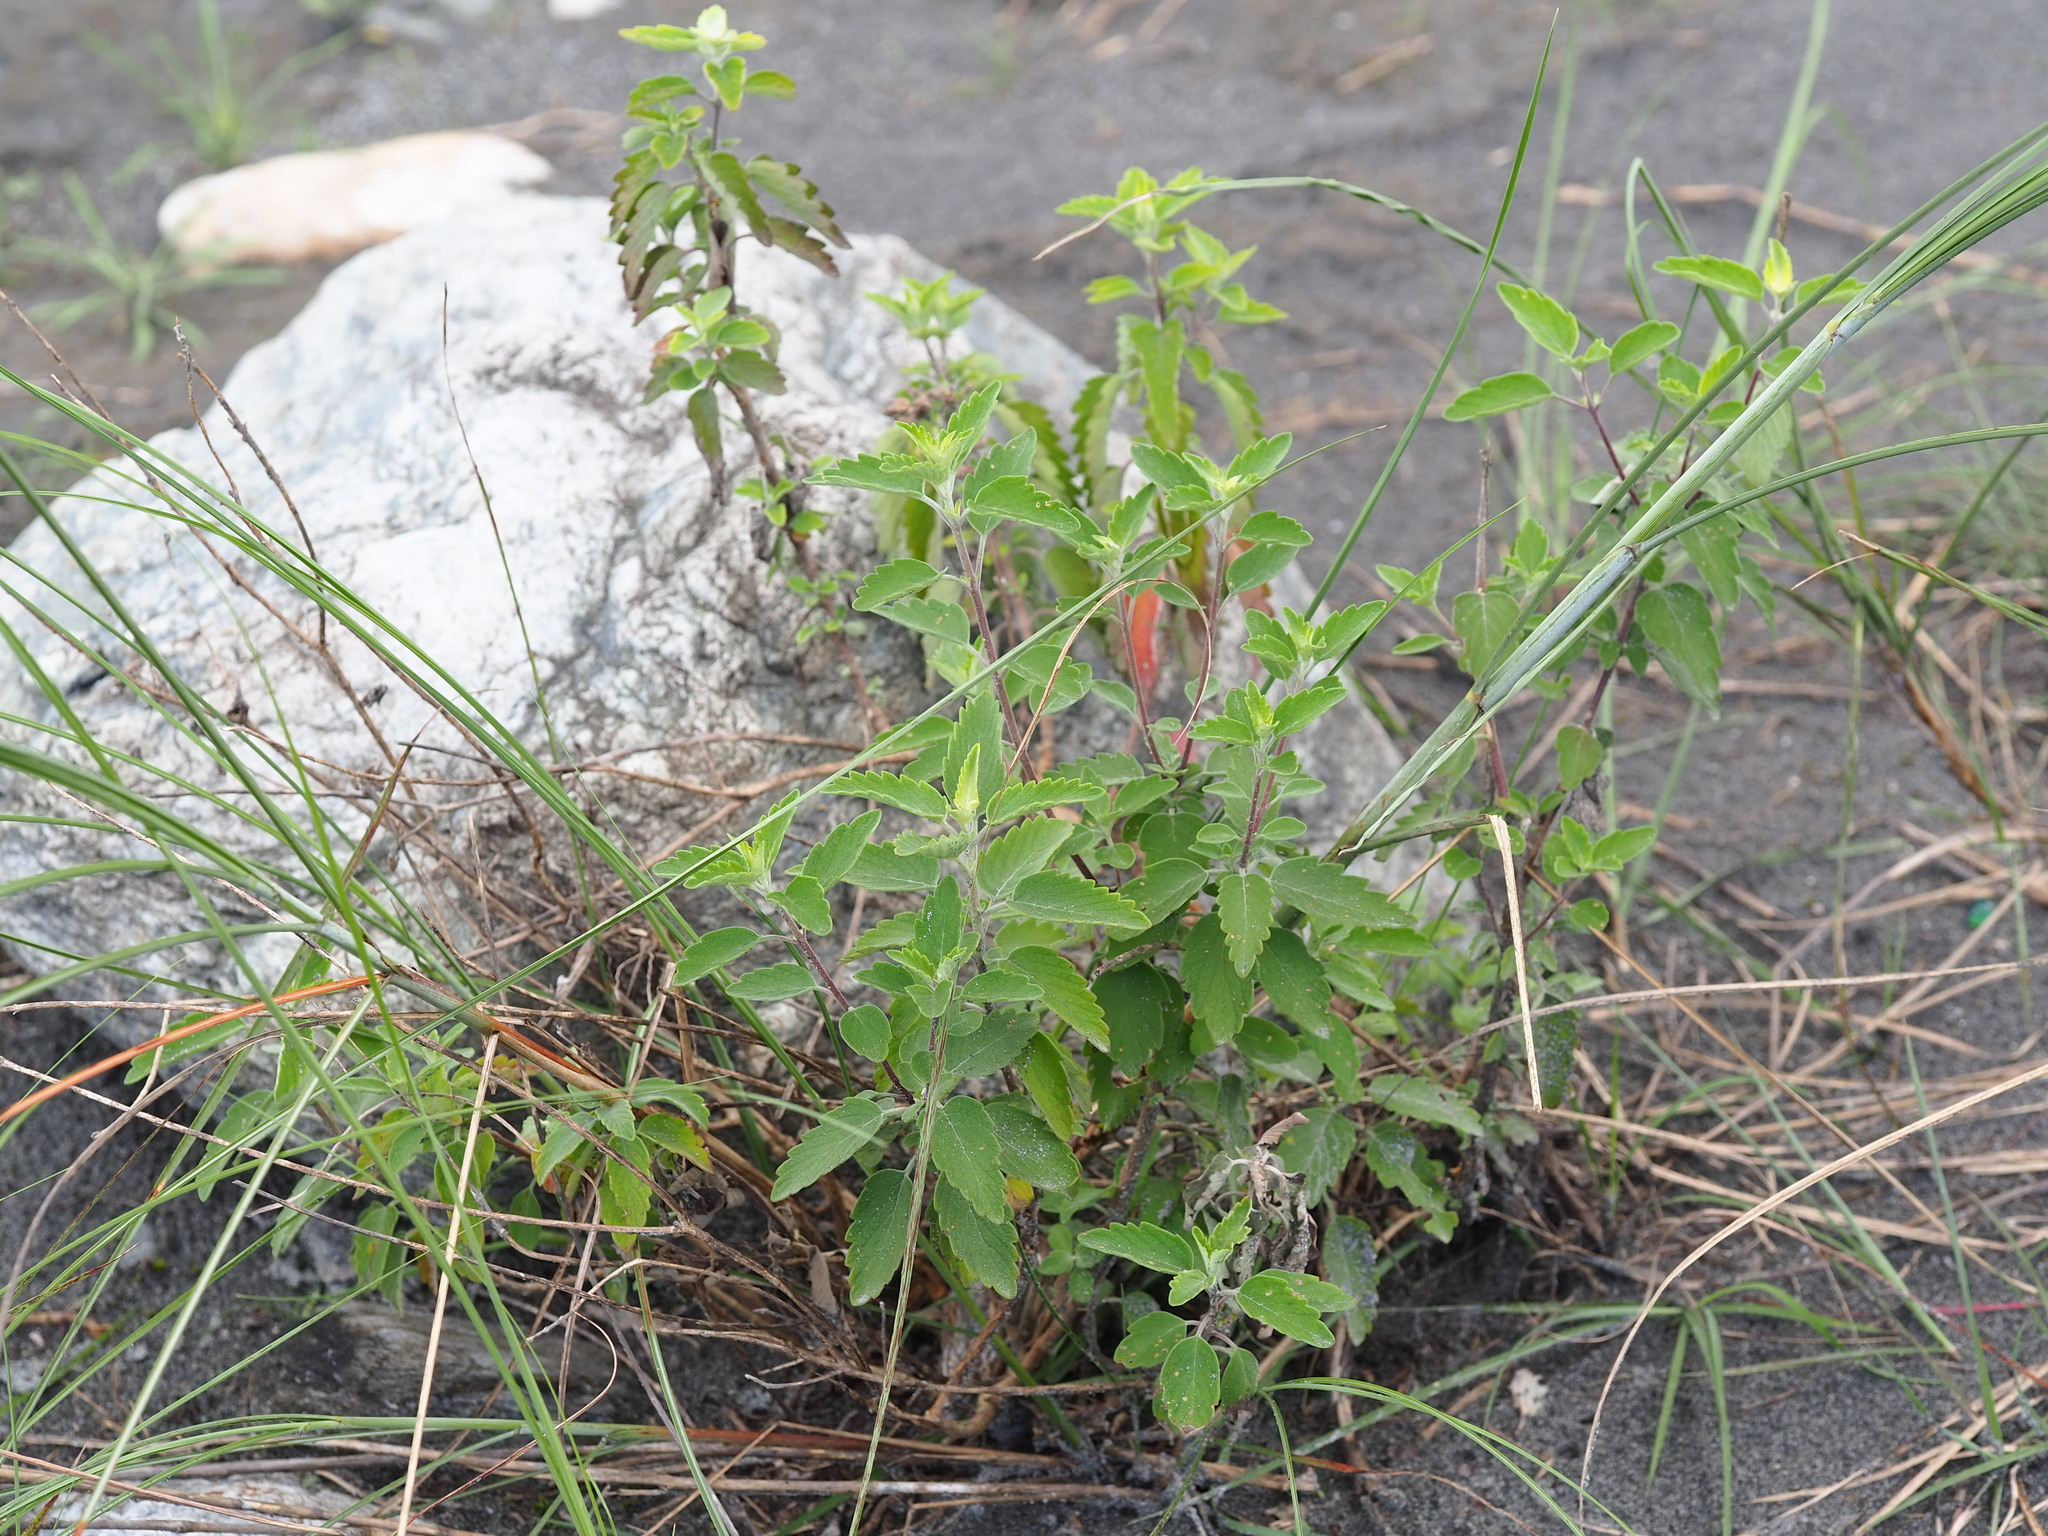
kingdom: Plantae
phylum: Tracheophyta
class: Magnoliopsida
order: Lamiales
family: Lamiaceae
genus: Caryopteris
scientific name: Caryopteris incana
